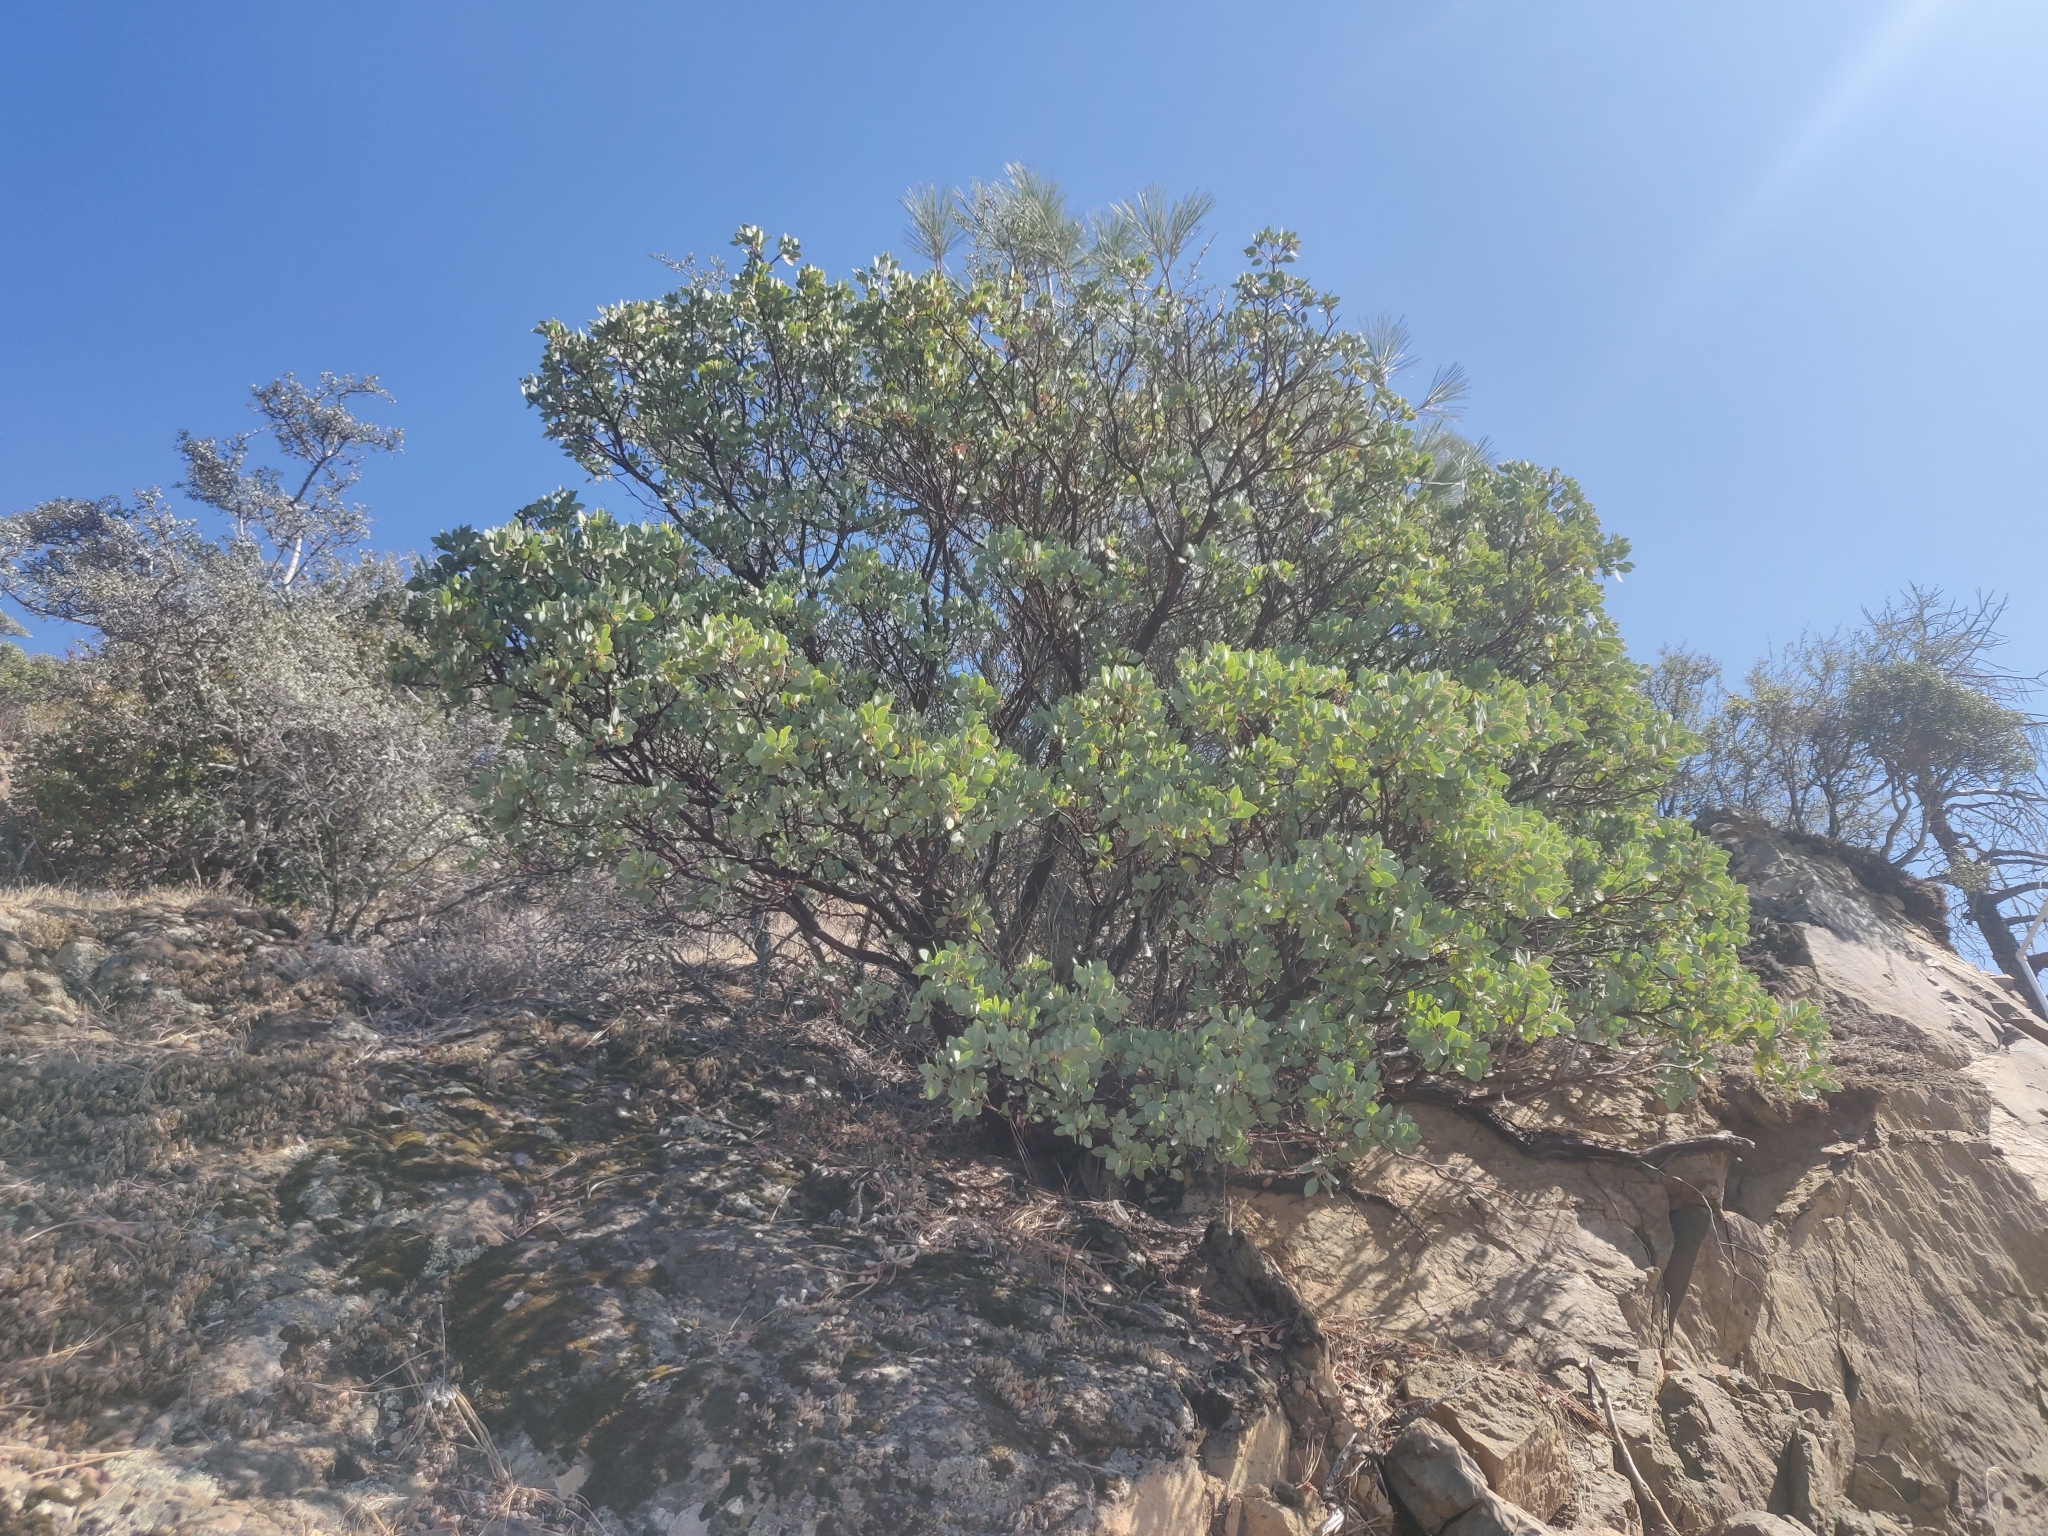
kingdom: Plantae
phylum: Tracheophyta
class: Magnoliopsida
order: Ericales
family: Ericaceae
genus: Arctostaphylos
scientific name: Arctostaphylos glauca
